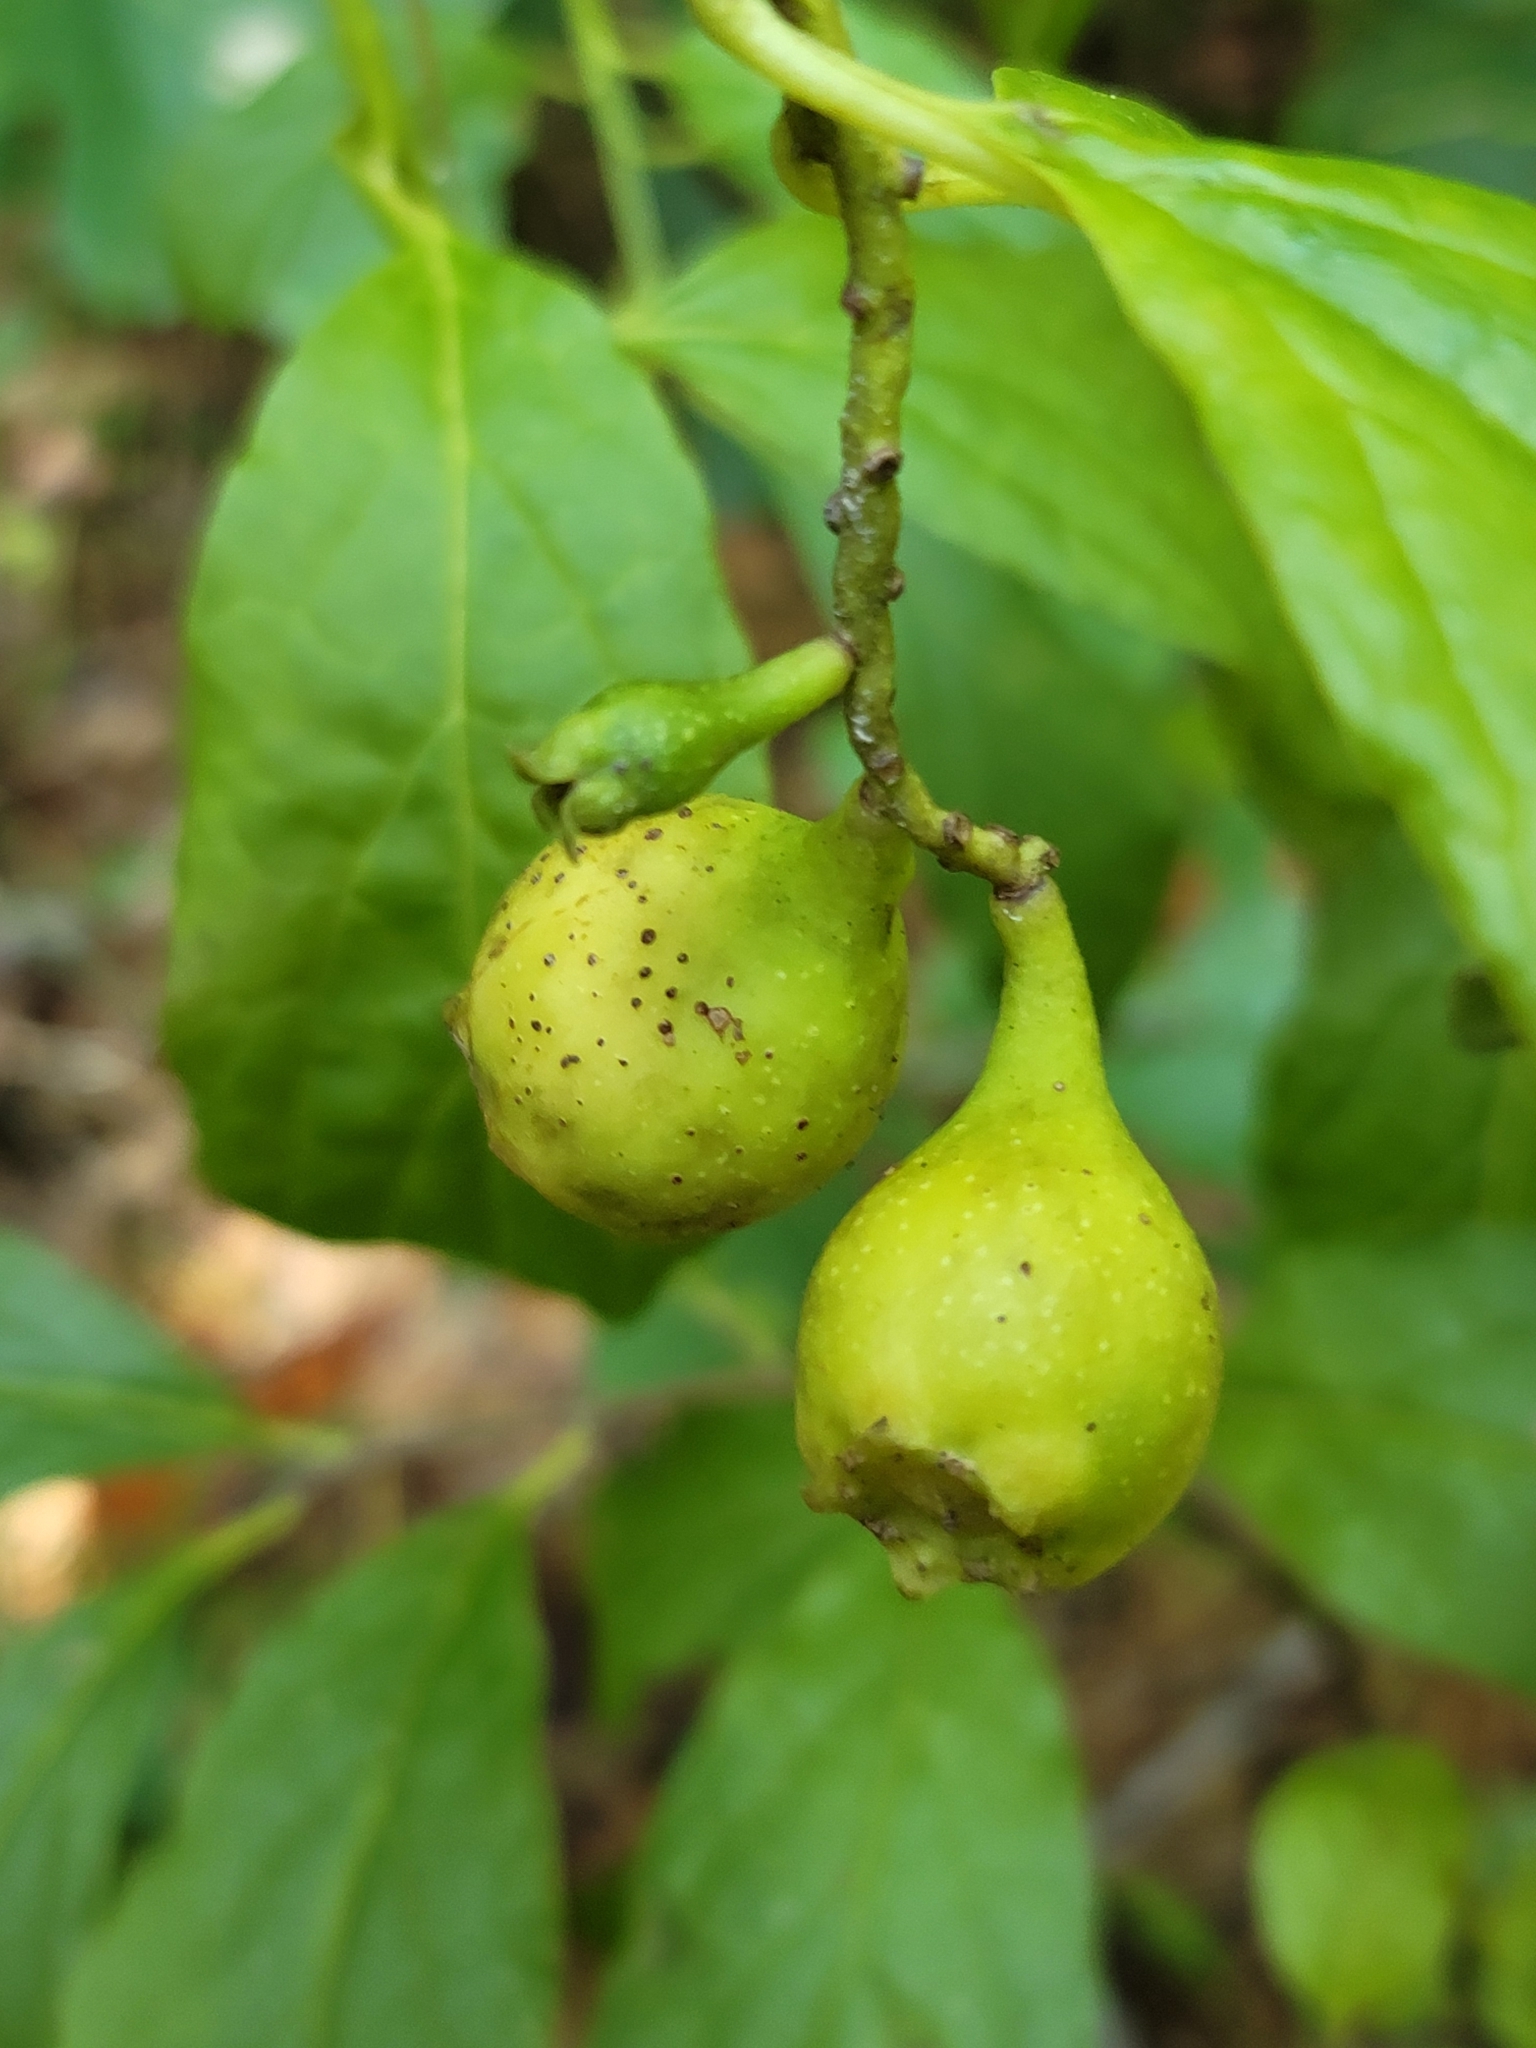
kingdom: Plantae
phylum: Tracheophyta
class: Magnoliopsida
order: Santalales
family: Cervantesiaceae
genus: Pyrularia
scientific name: Pyrularia pubera
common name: Oilnut
